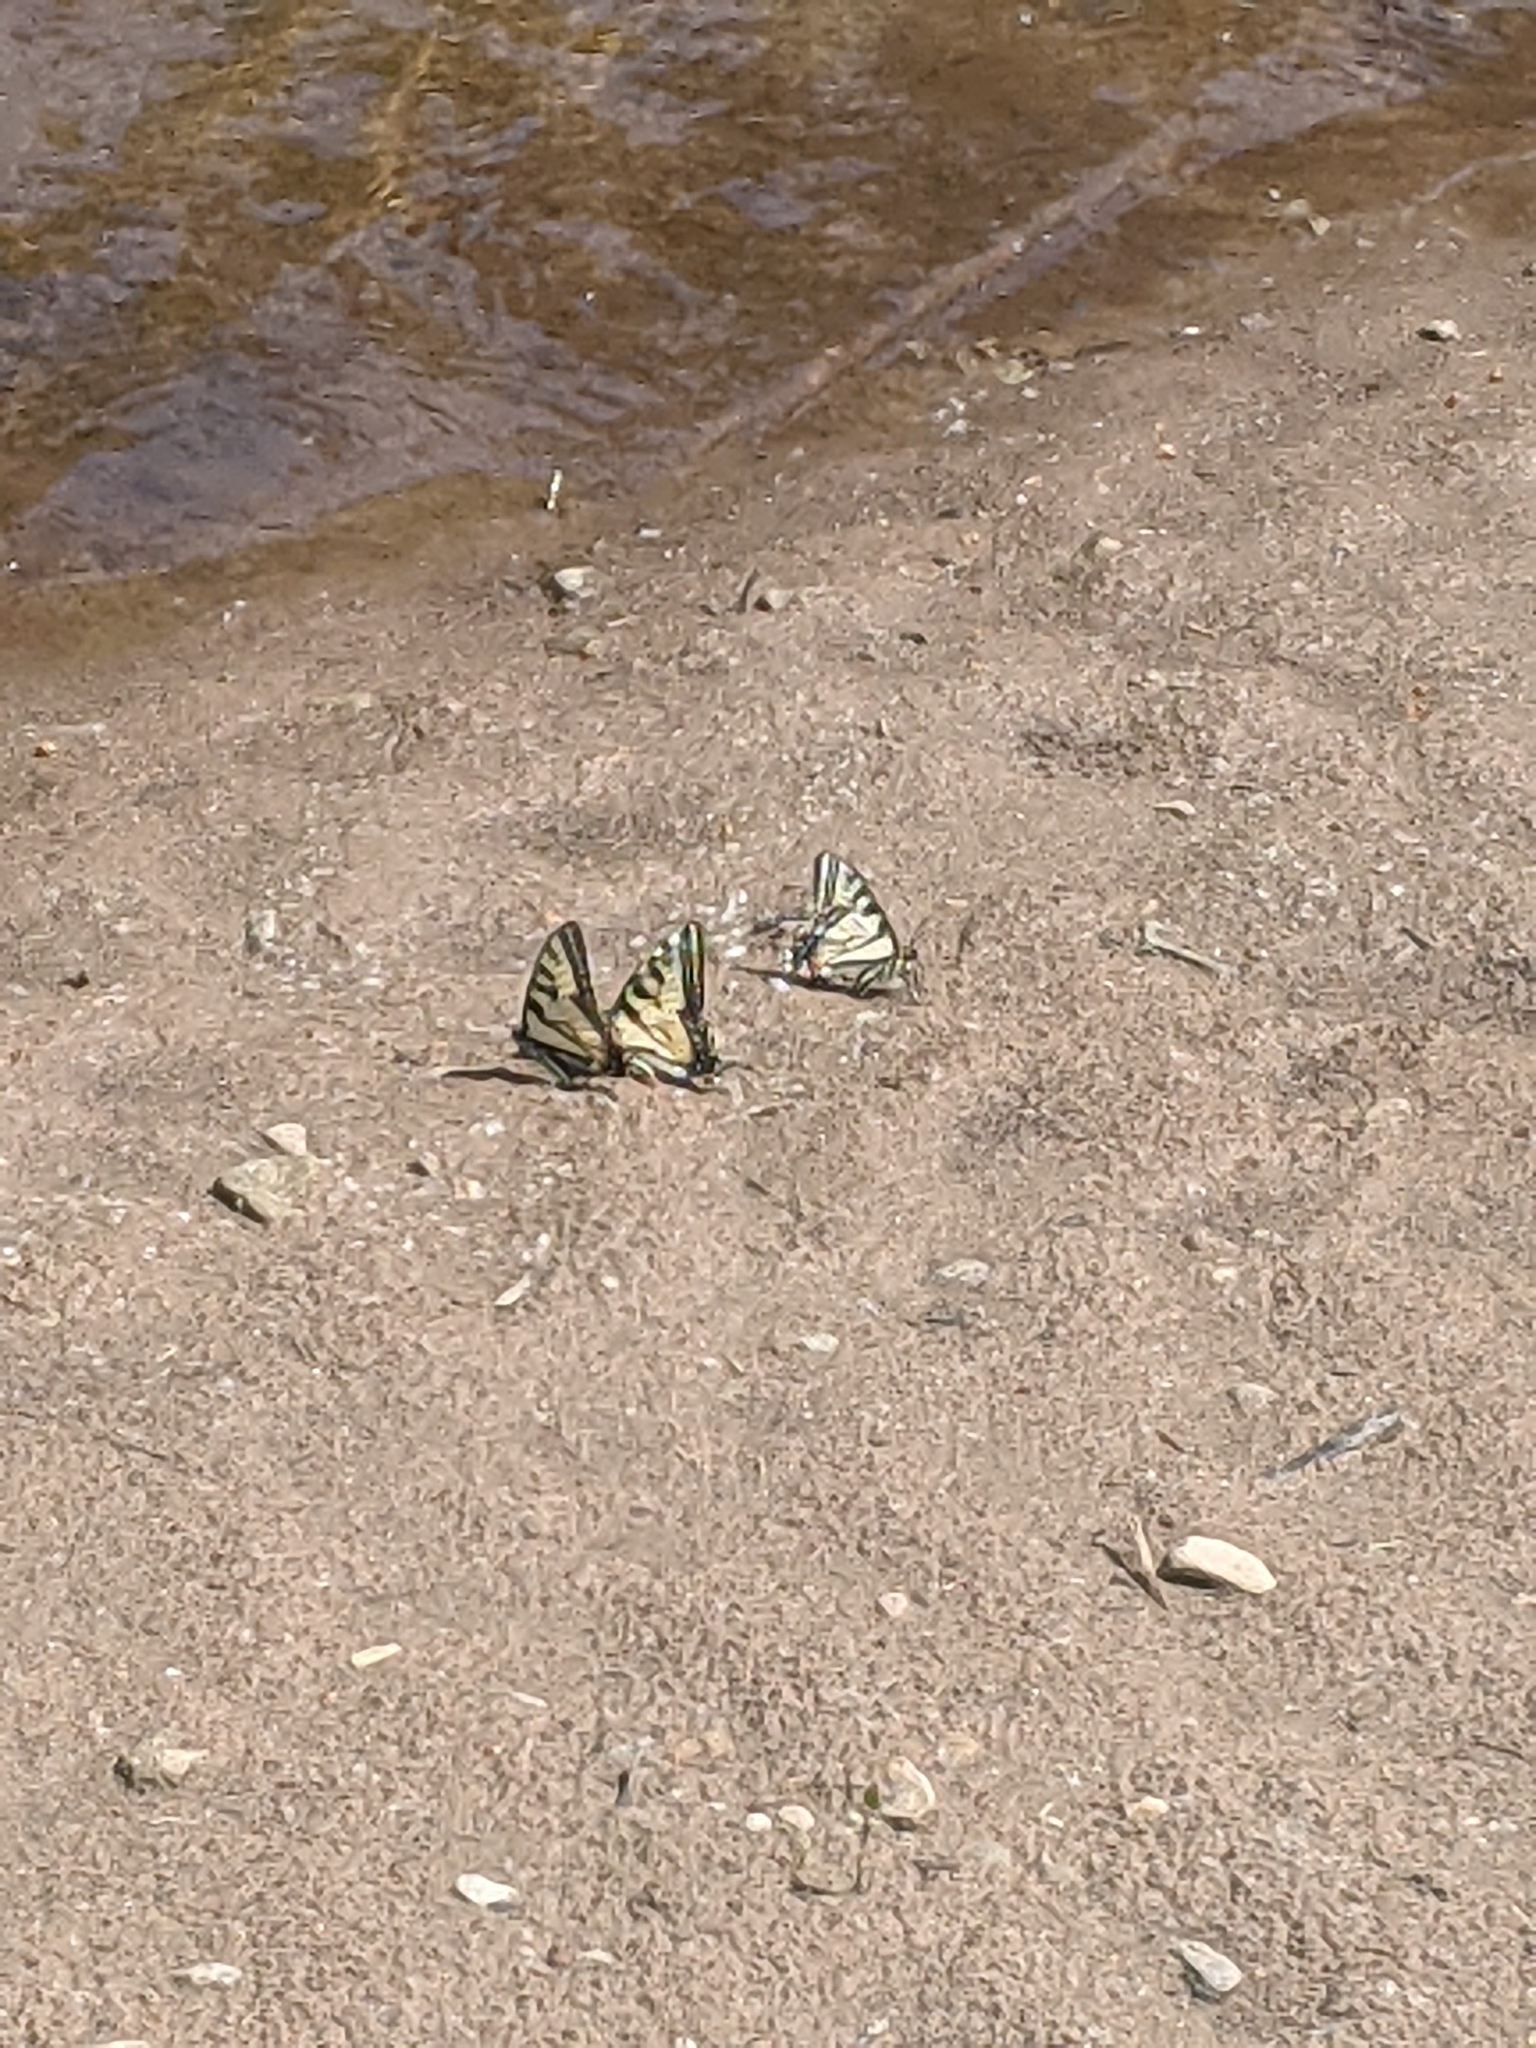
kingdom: Animalia
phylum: Arthropoda
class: Insecta
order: Lepidoptera
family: Papilionidae
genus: Papilio
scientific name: Papilio canadensis
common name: Canadian tiger swallowtail
